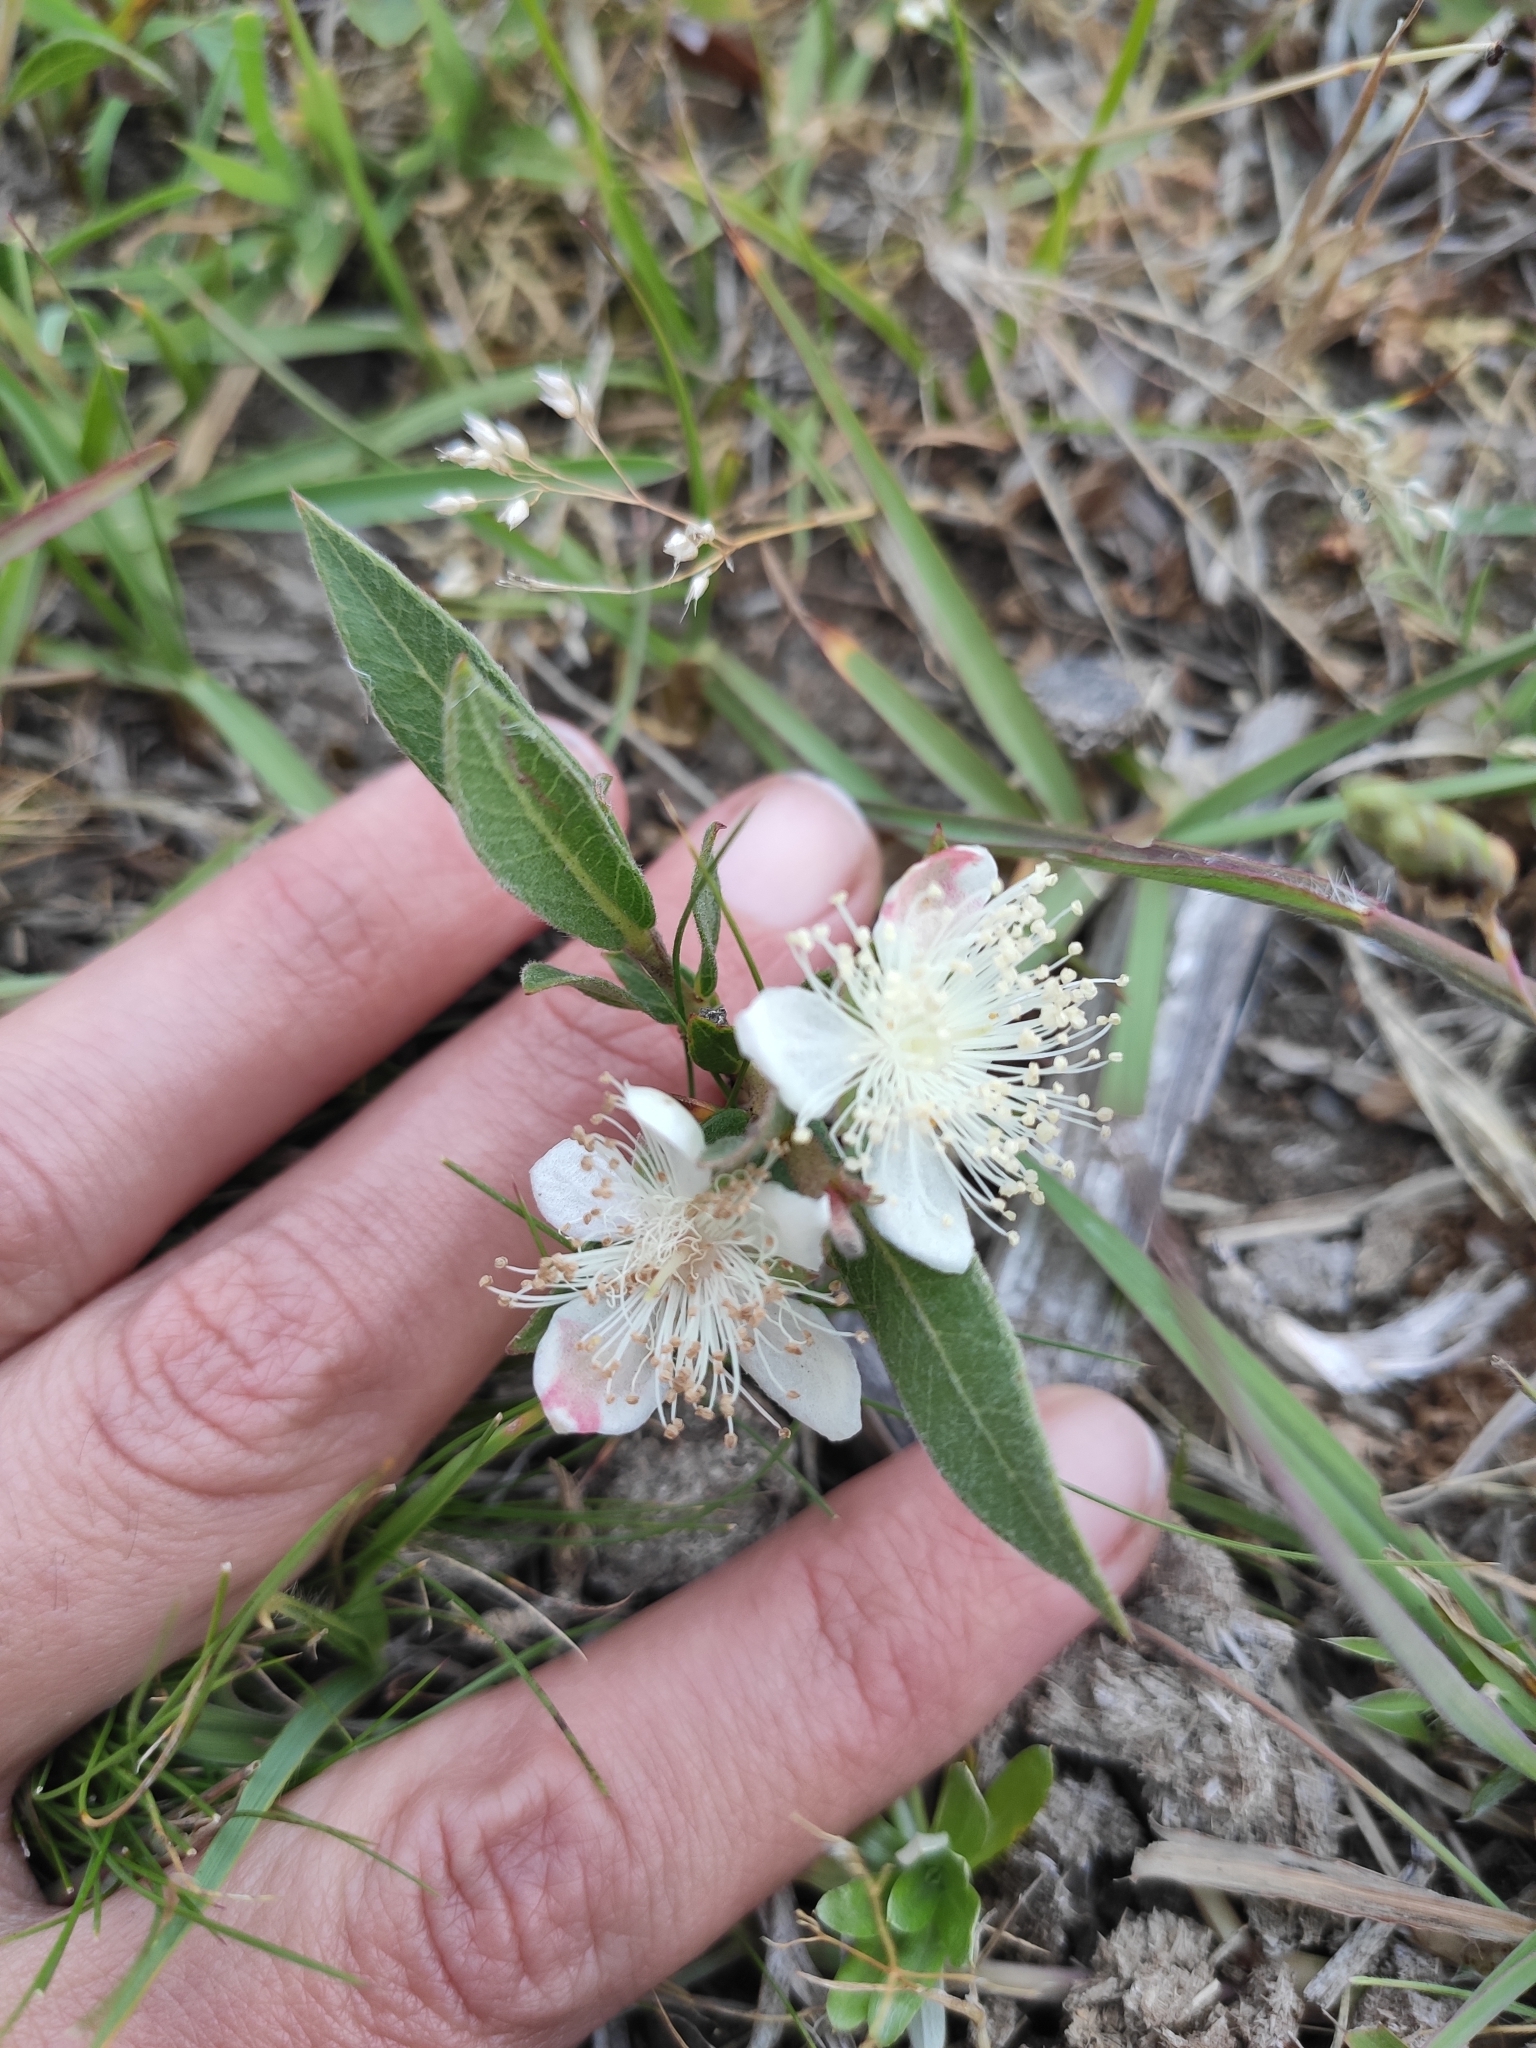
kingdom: Plantae
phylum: Tracheophyta
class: Magnoliopsida
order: Myrtales
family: Myrtaceae
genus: Psidium
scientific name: Psidium salutare
